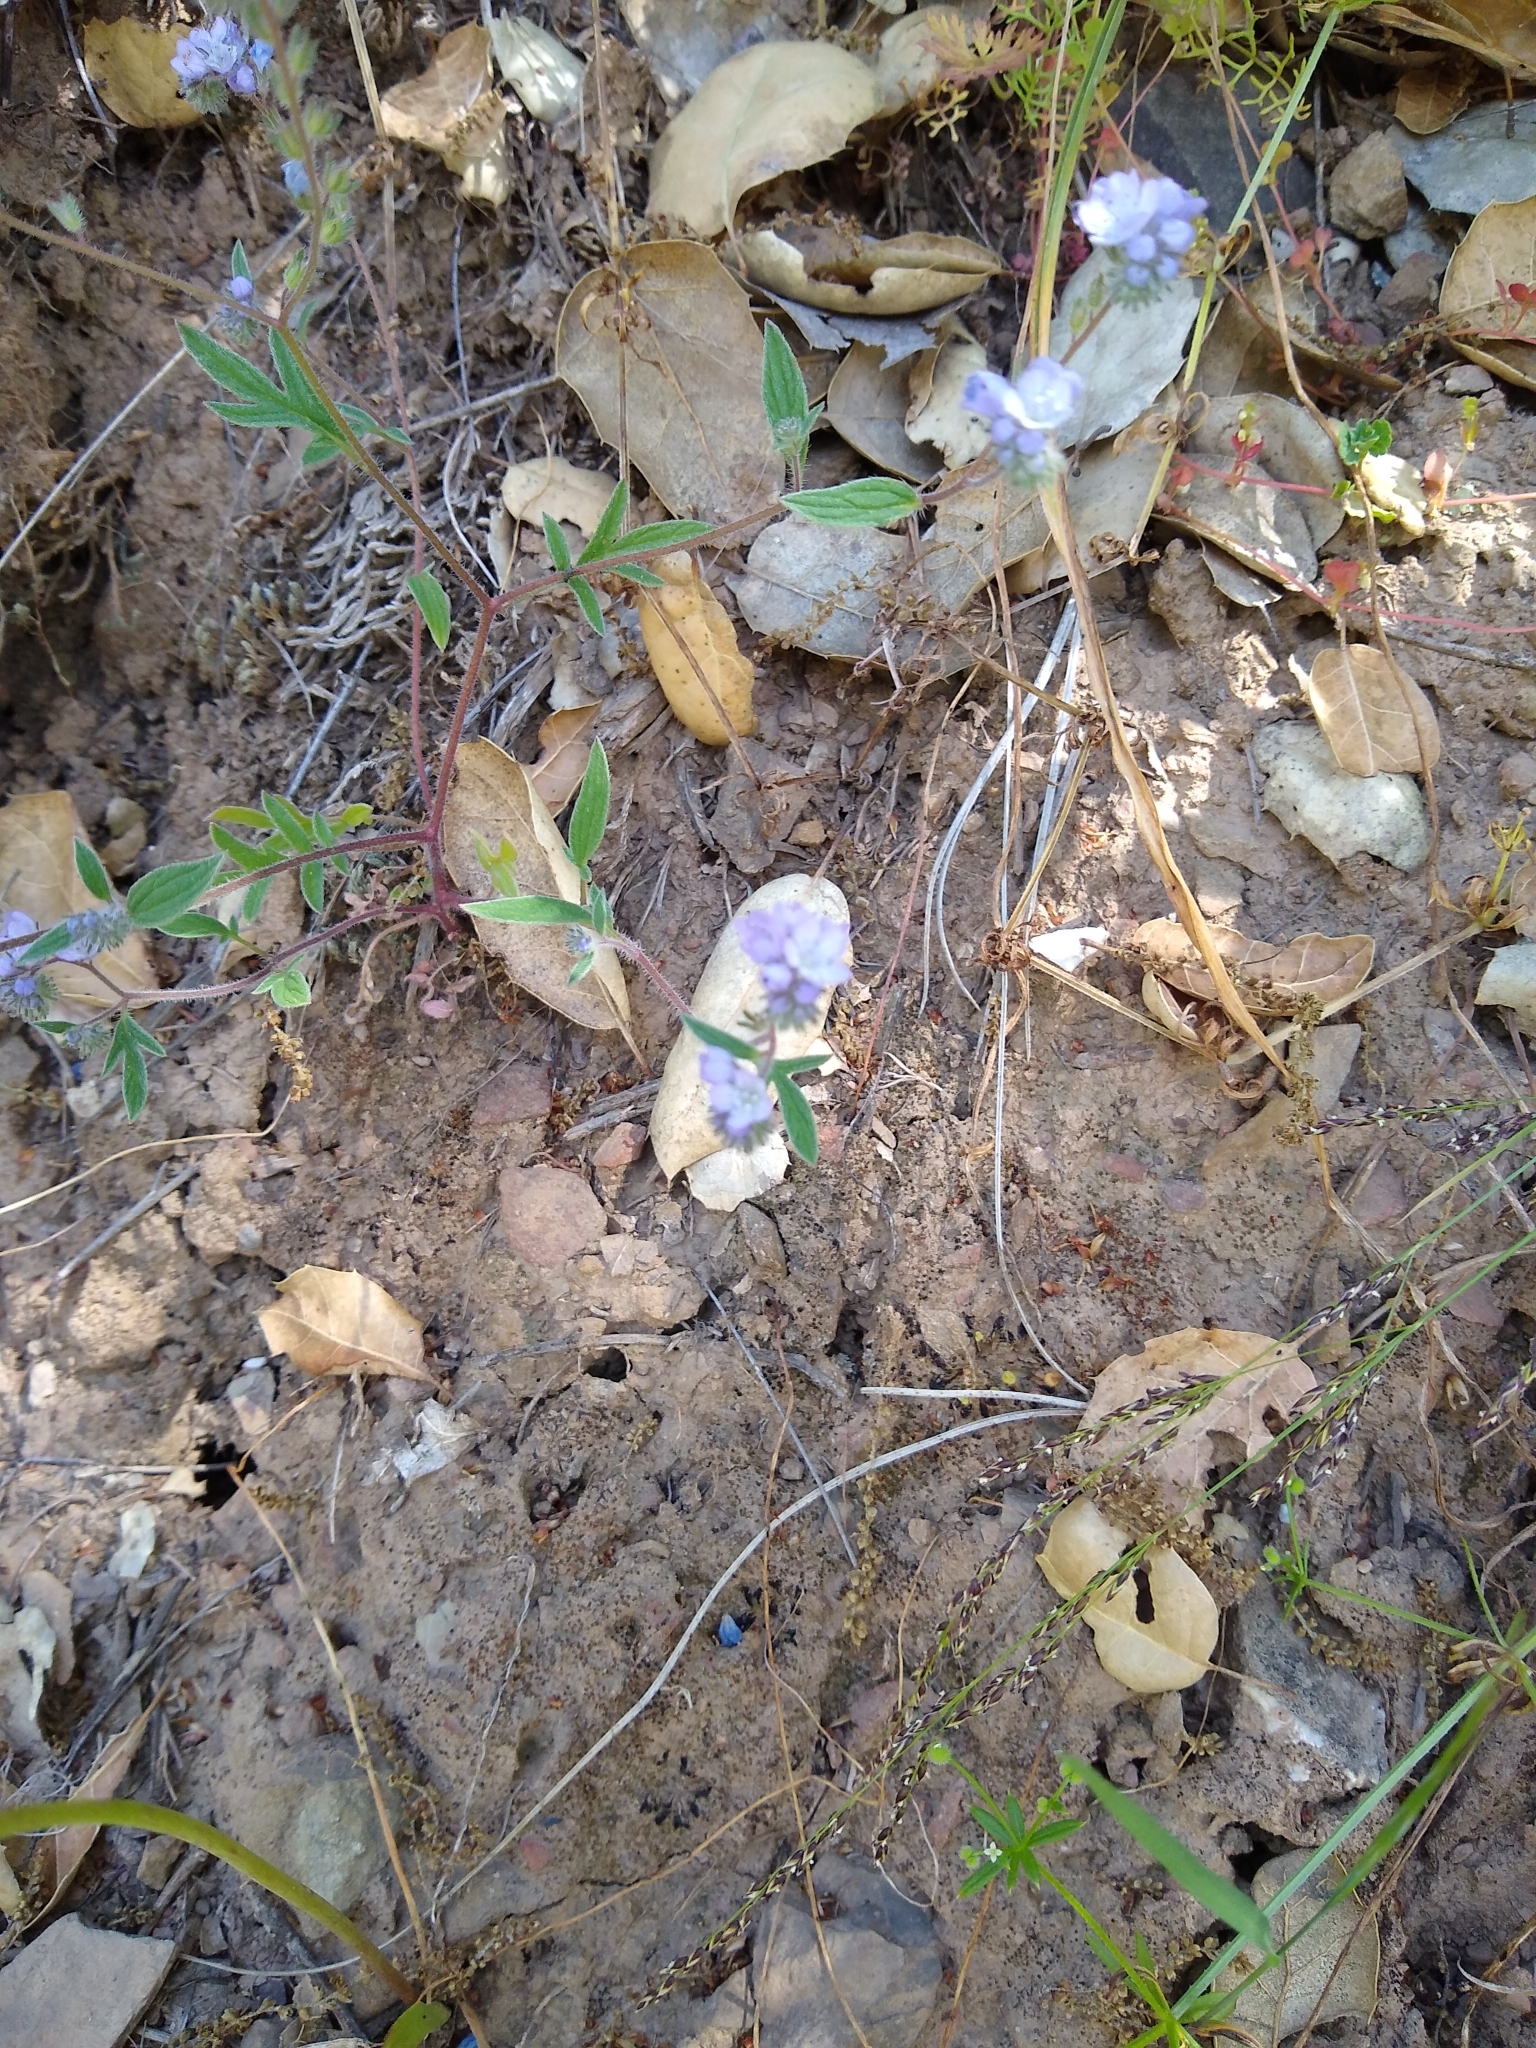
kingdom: Plantae
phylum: Tracheophyta
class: Magnoliopsida
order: Boraginales
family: Hydrophyllaceae
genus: Phacelia
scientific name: Phacelia breweri
